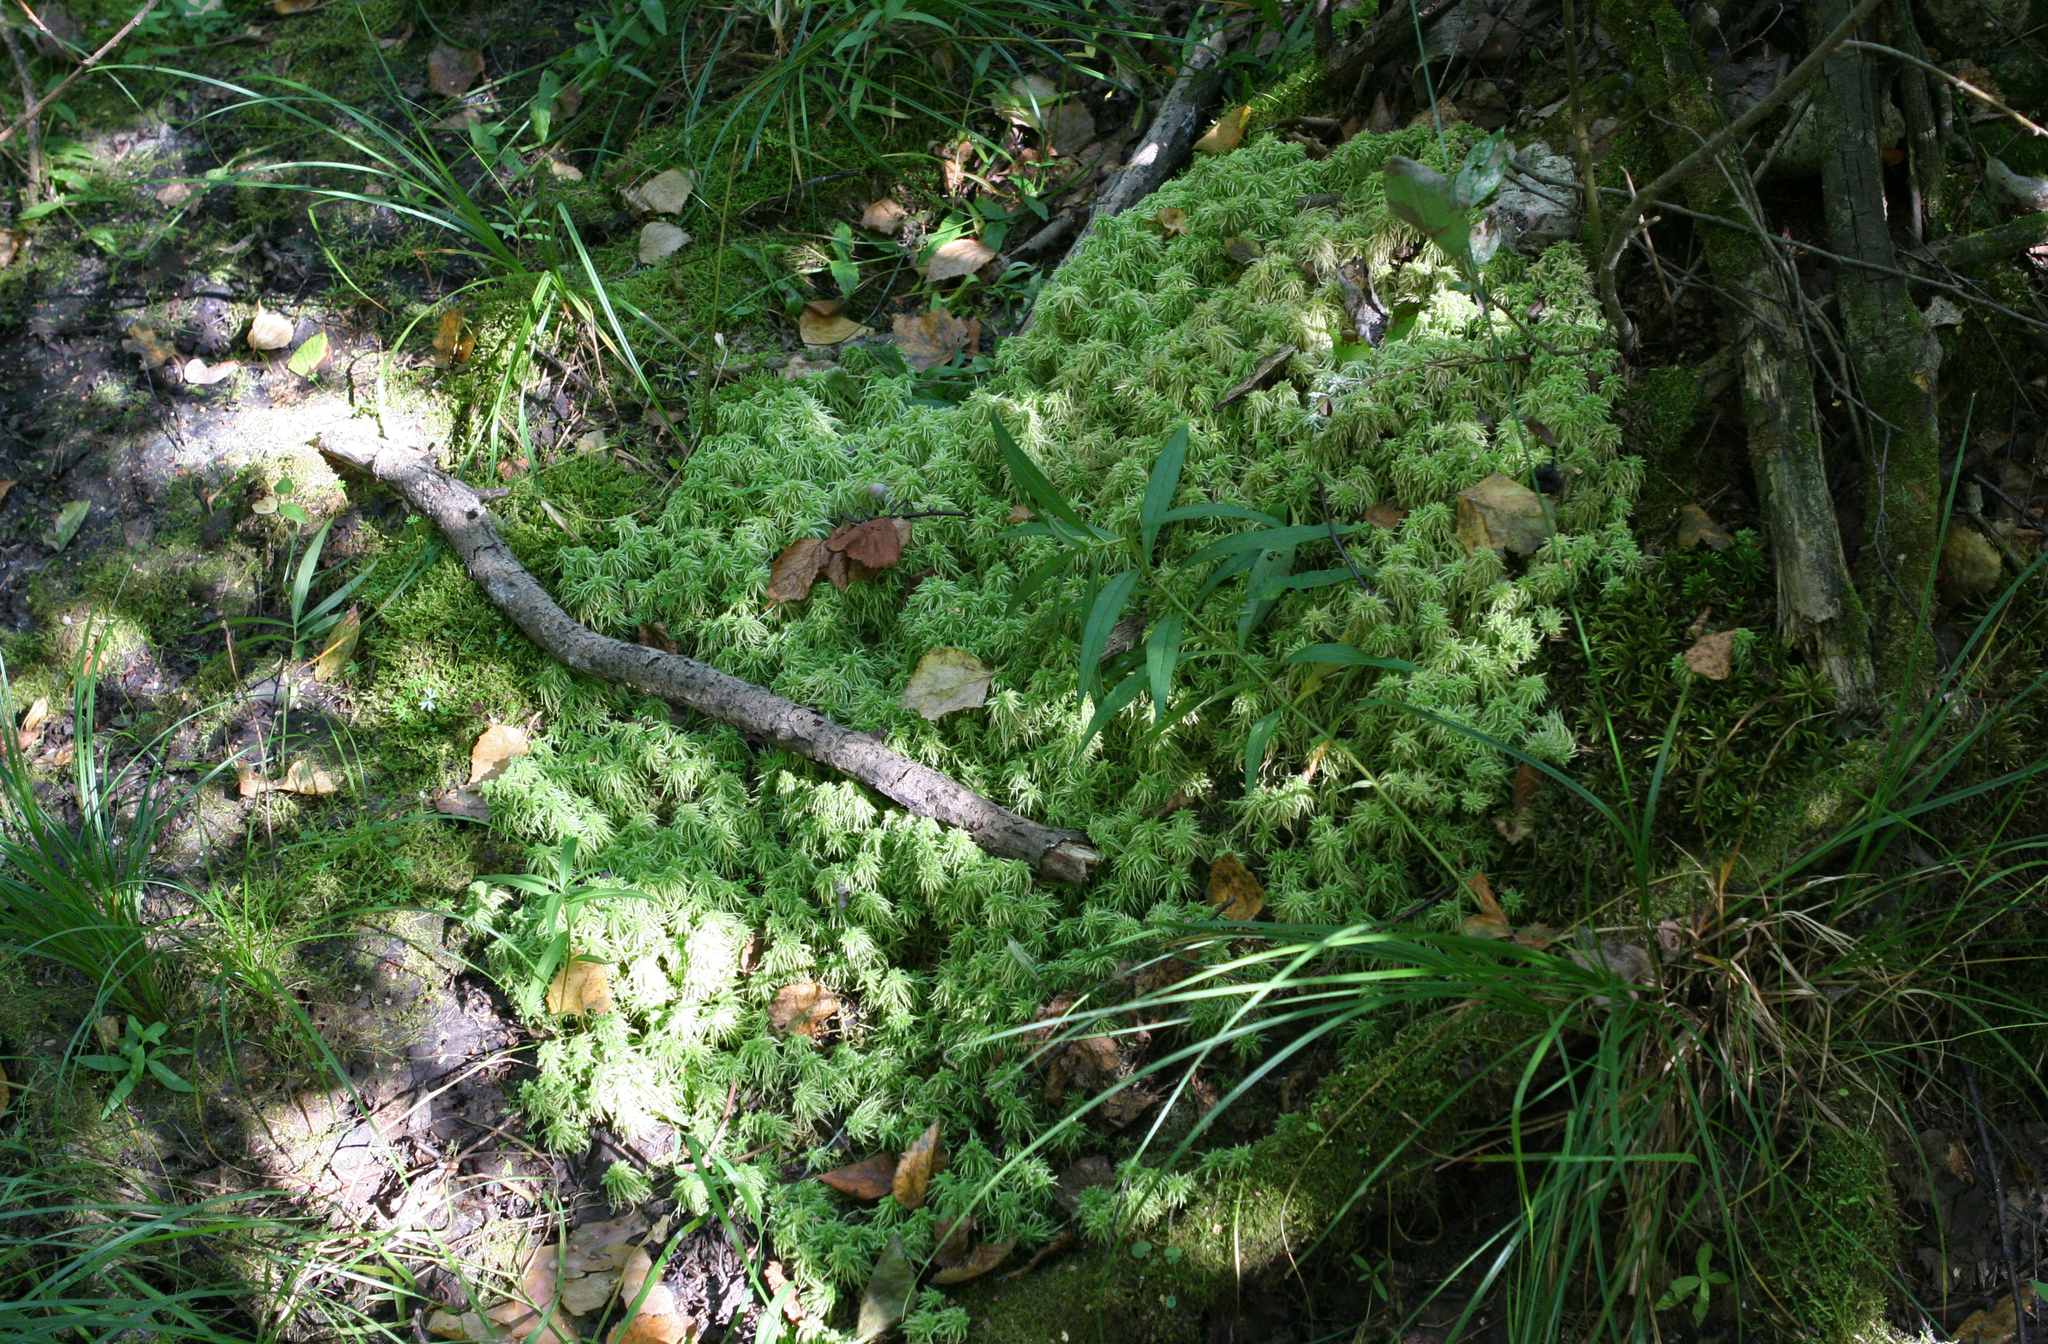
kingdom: Plantae
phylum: Bryophyta
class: Sphagnopsida
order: Sphagnales
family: Sphagnaceae
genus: Sphagnum
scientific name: Sphagnum squarrosum
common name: Shaggy peat moss
